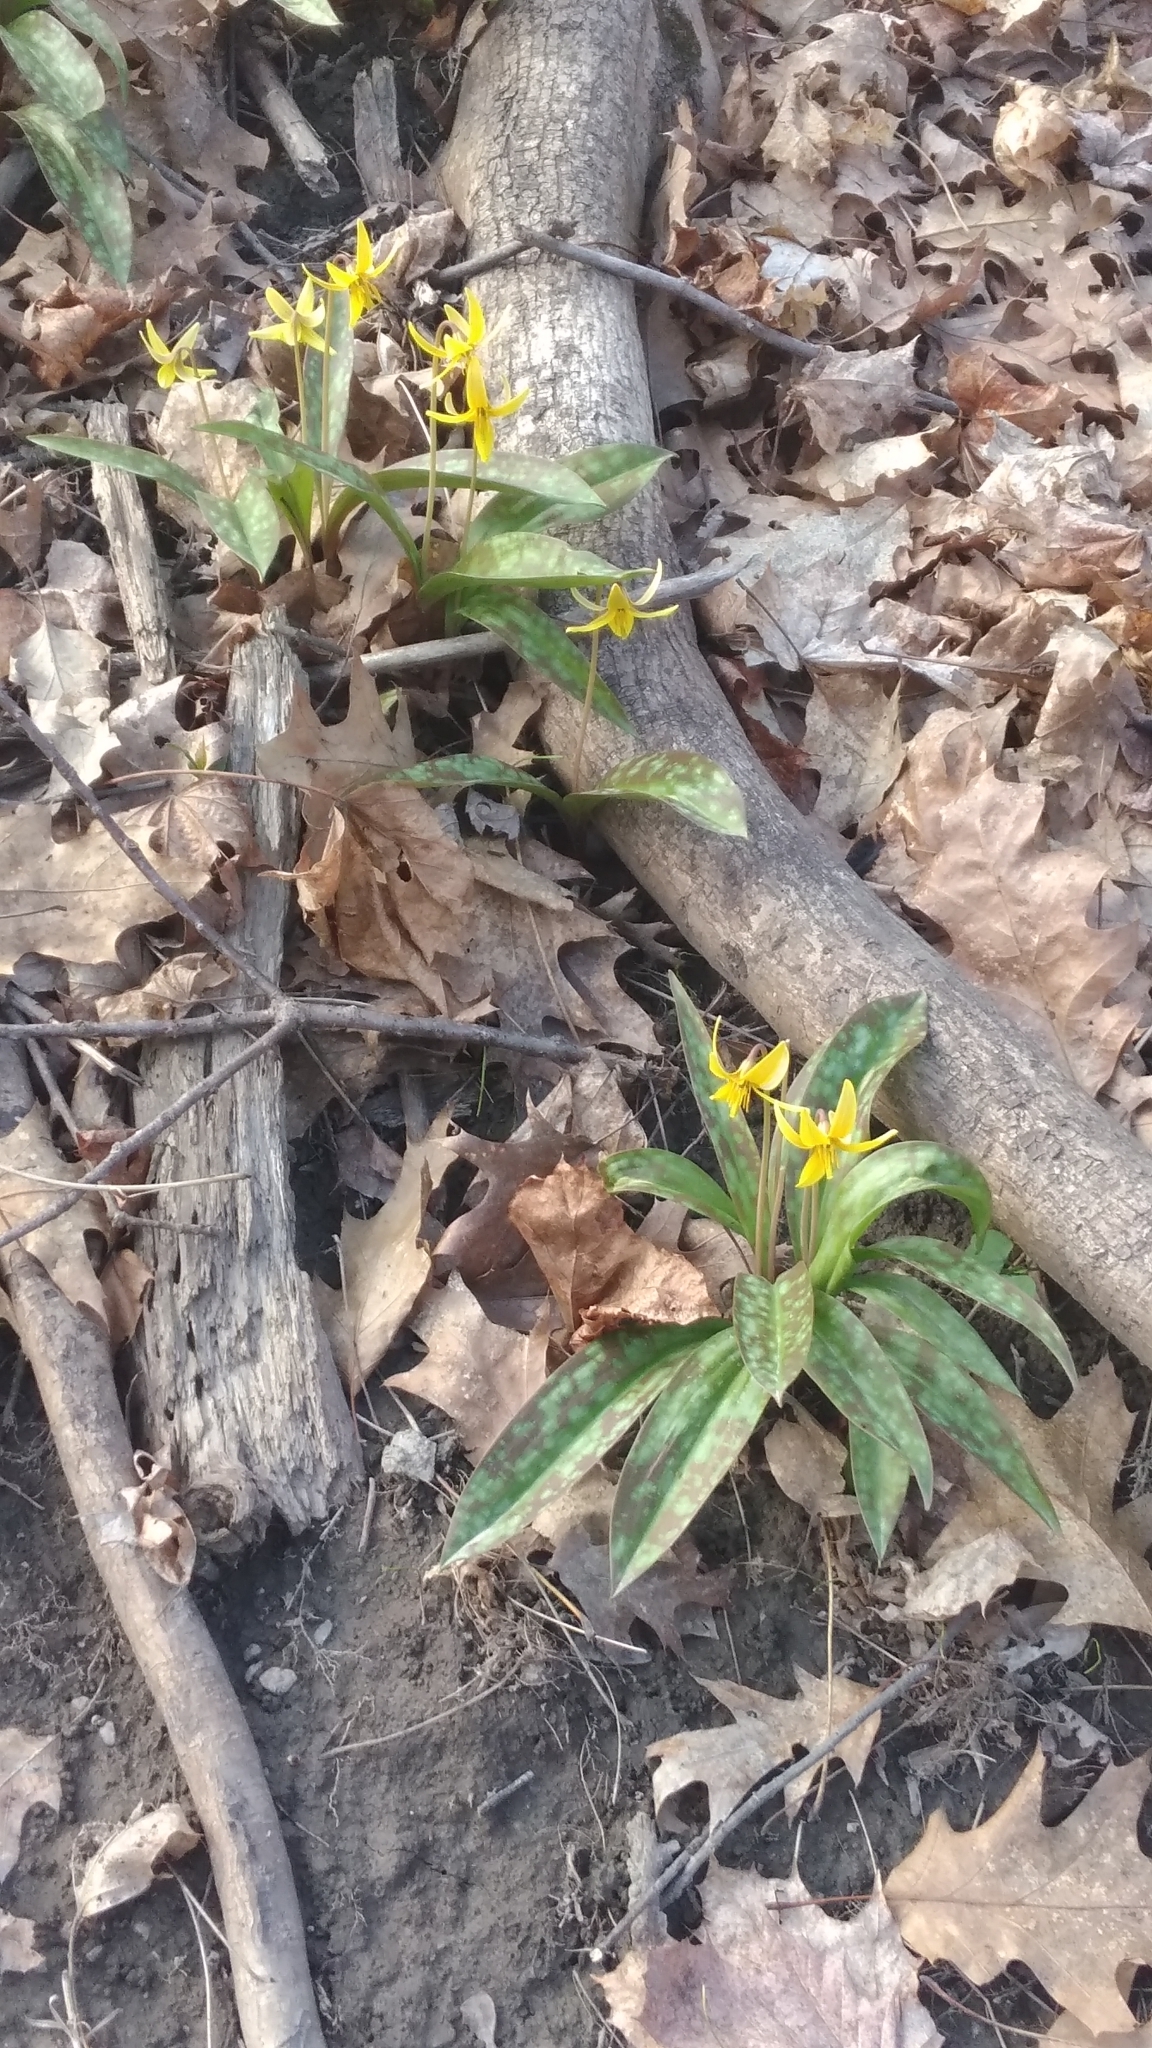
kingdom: Plantae
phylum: Tracheophyta
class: Liliopsida
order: Liliales
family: Liliaceae
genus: Erythronium
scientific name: Erythronium americanum
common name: Yellow adder's-tongue
